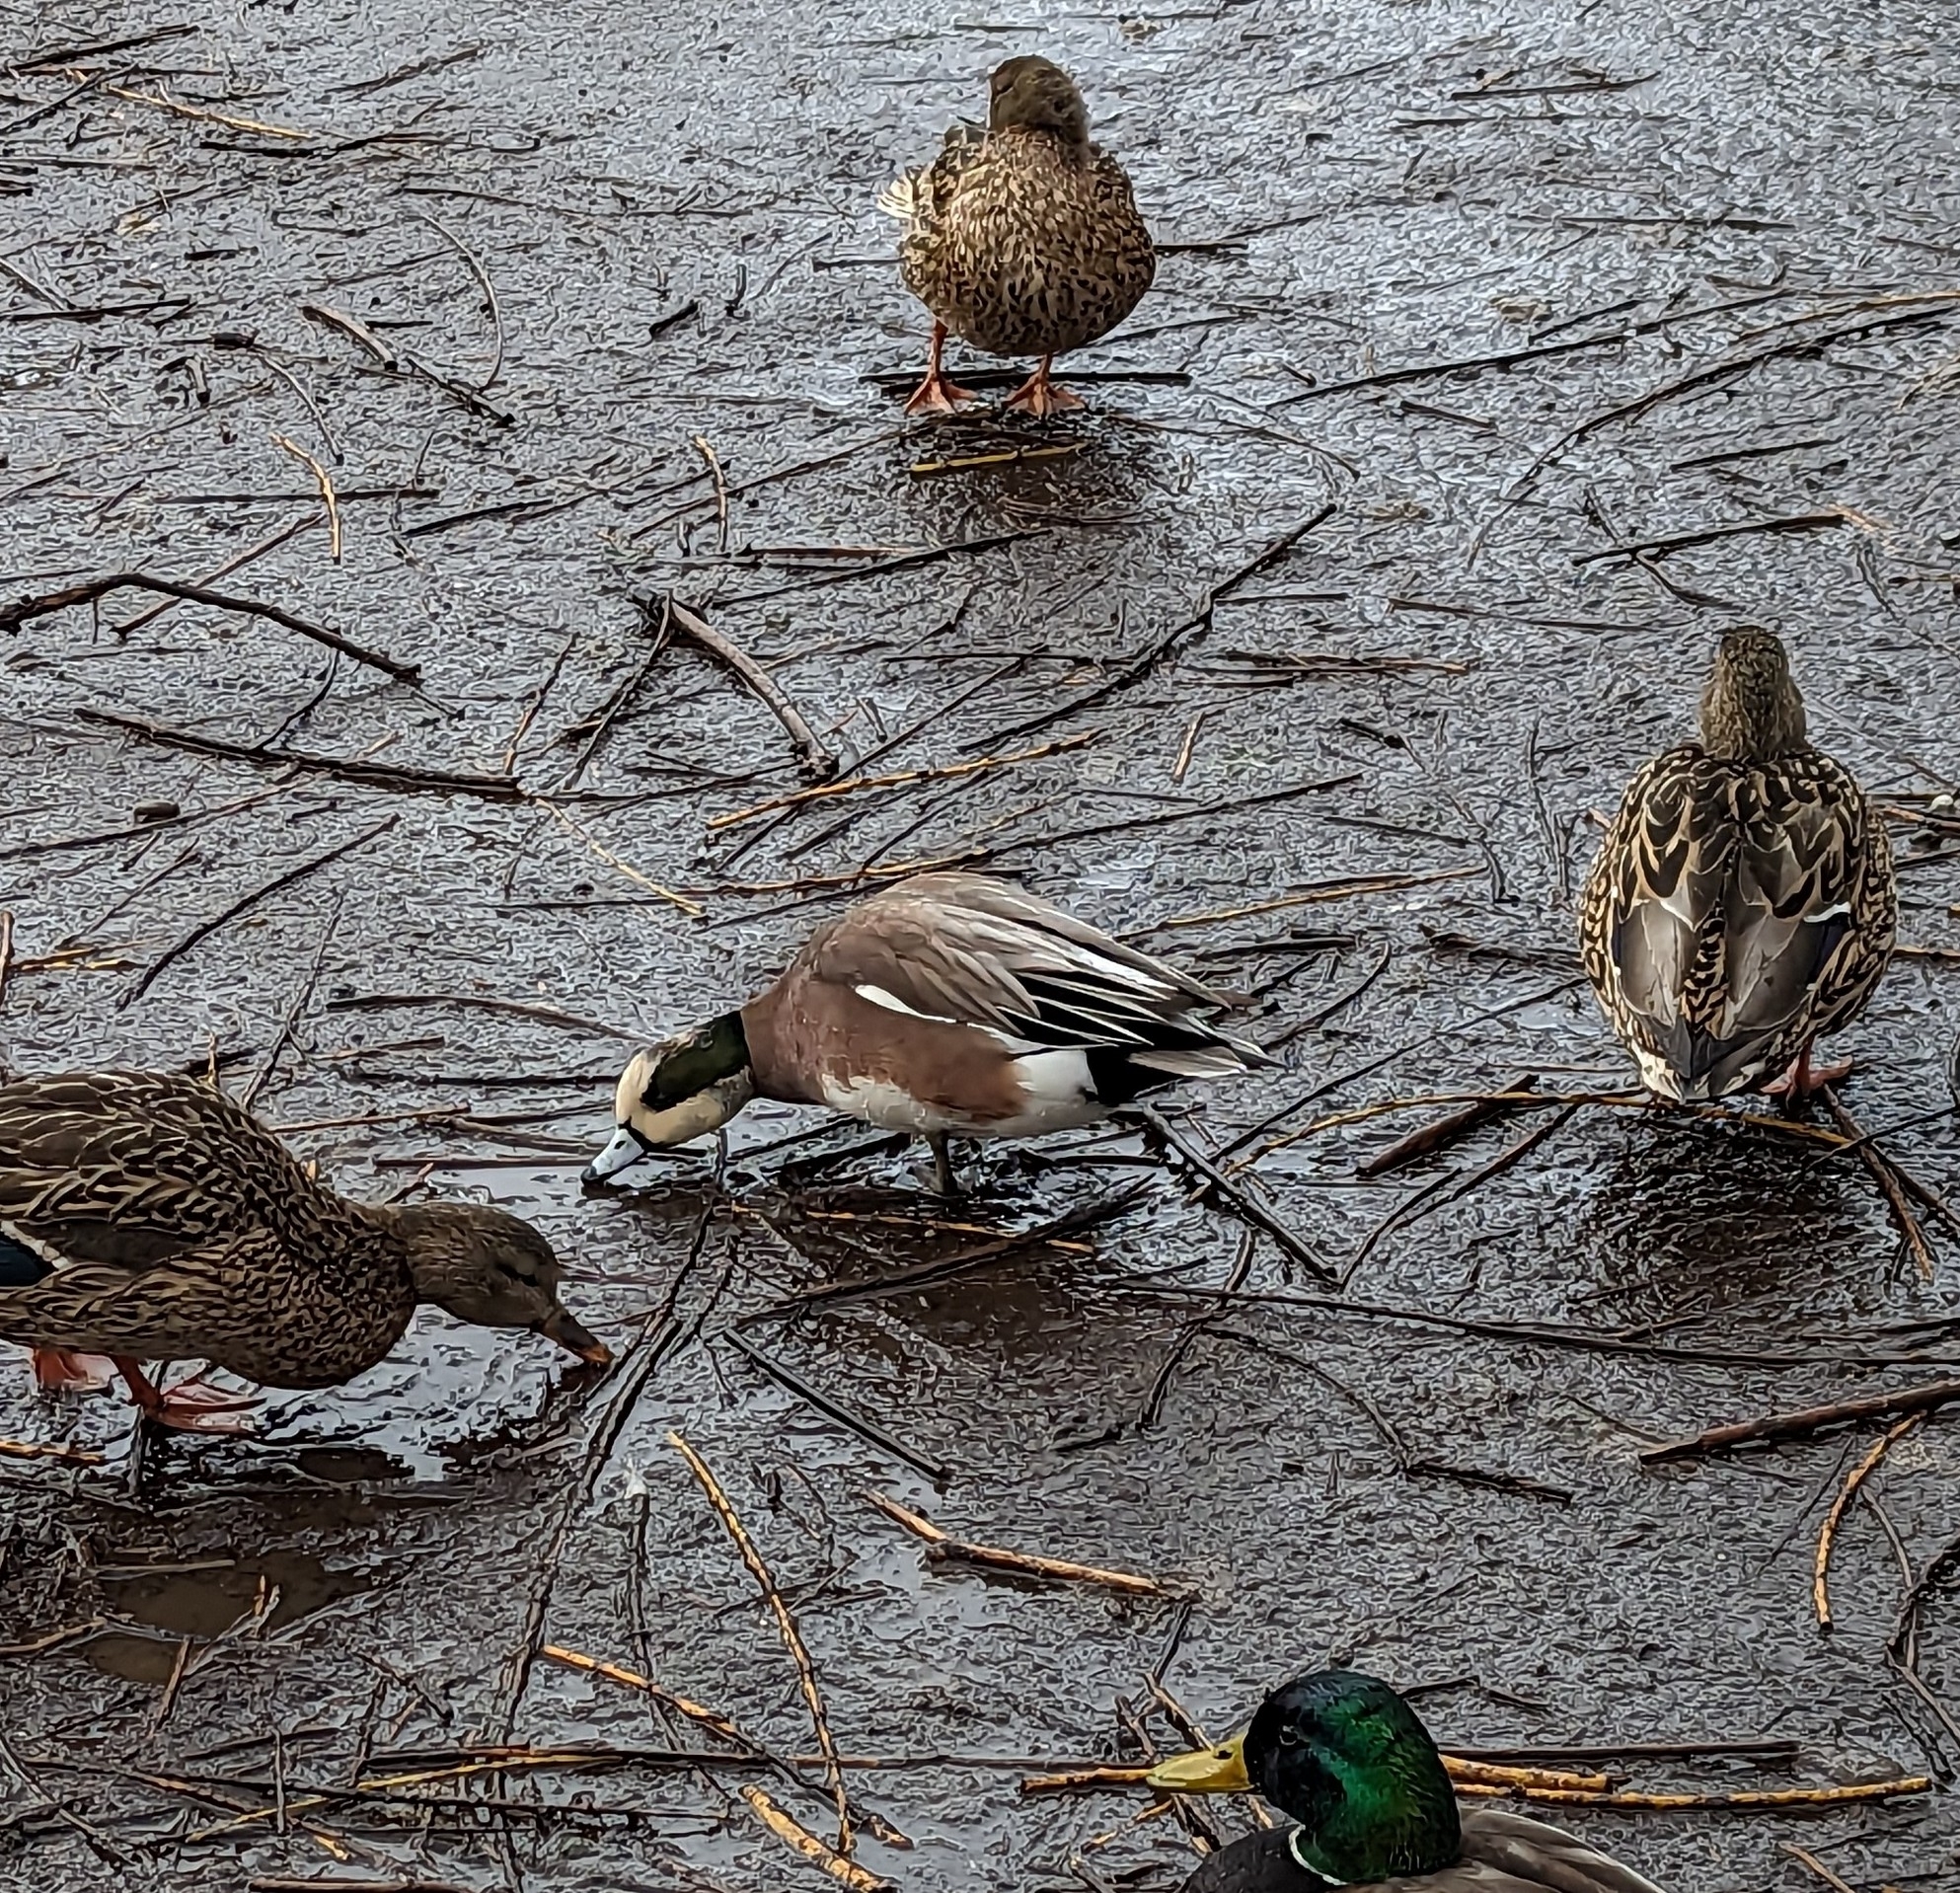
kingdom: Animalia
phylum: Chordata
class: Aves
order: Anseriformes
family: Anatidae
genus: Mareca
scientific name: Mareca americana
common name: American wigeon
